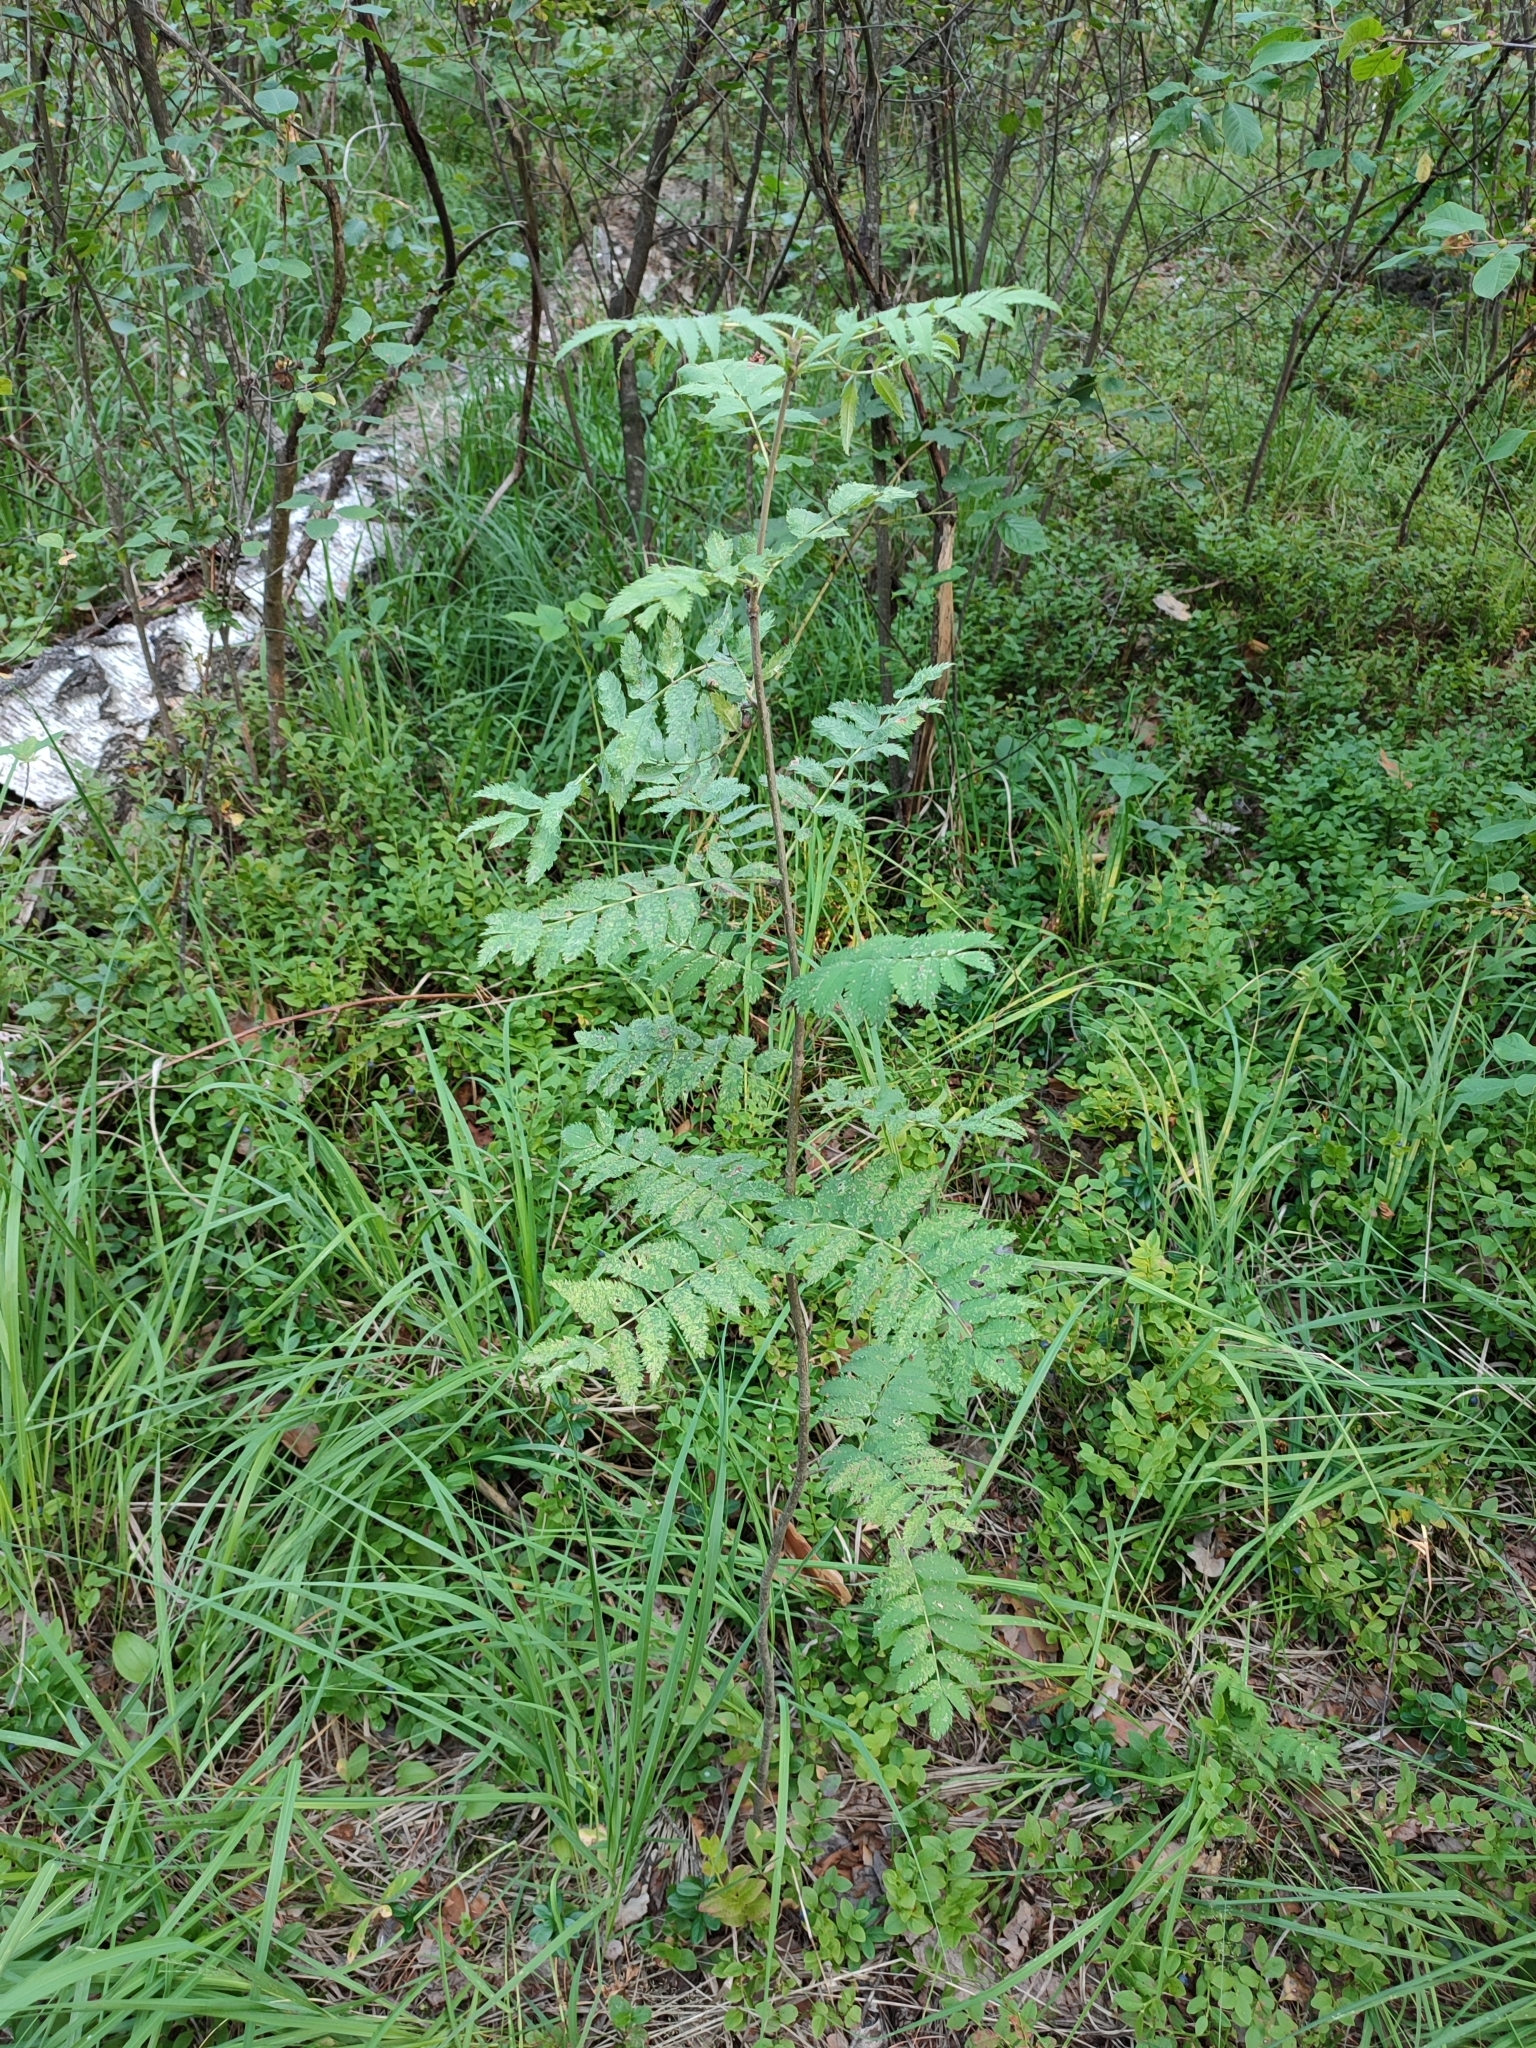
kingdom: Plantae
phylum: Tracheophyta
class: Magnoliopsida
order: Rosales
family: Rosaceae
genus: Sorbus
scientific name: Sorbus aucuparia
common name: Rowan
